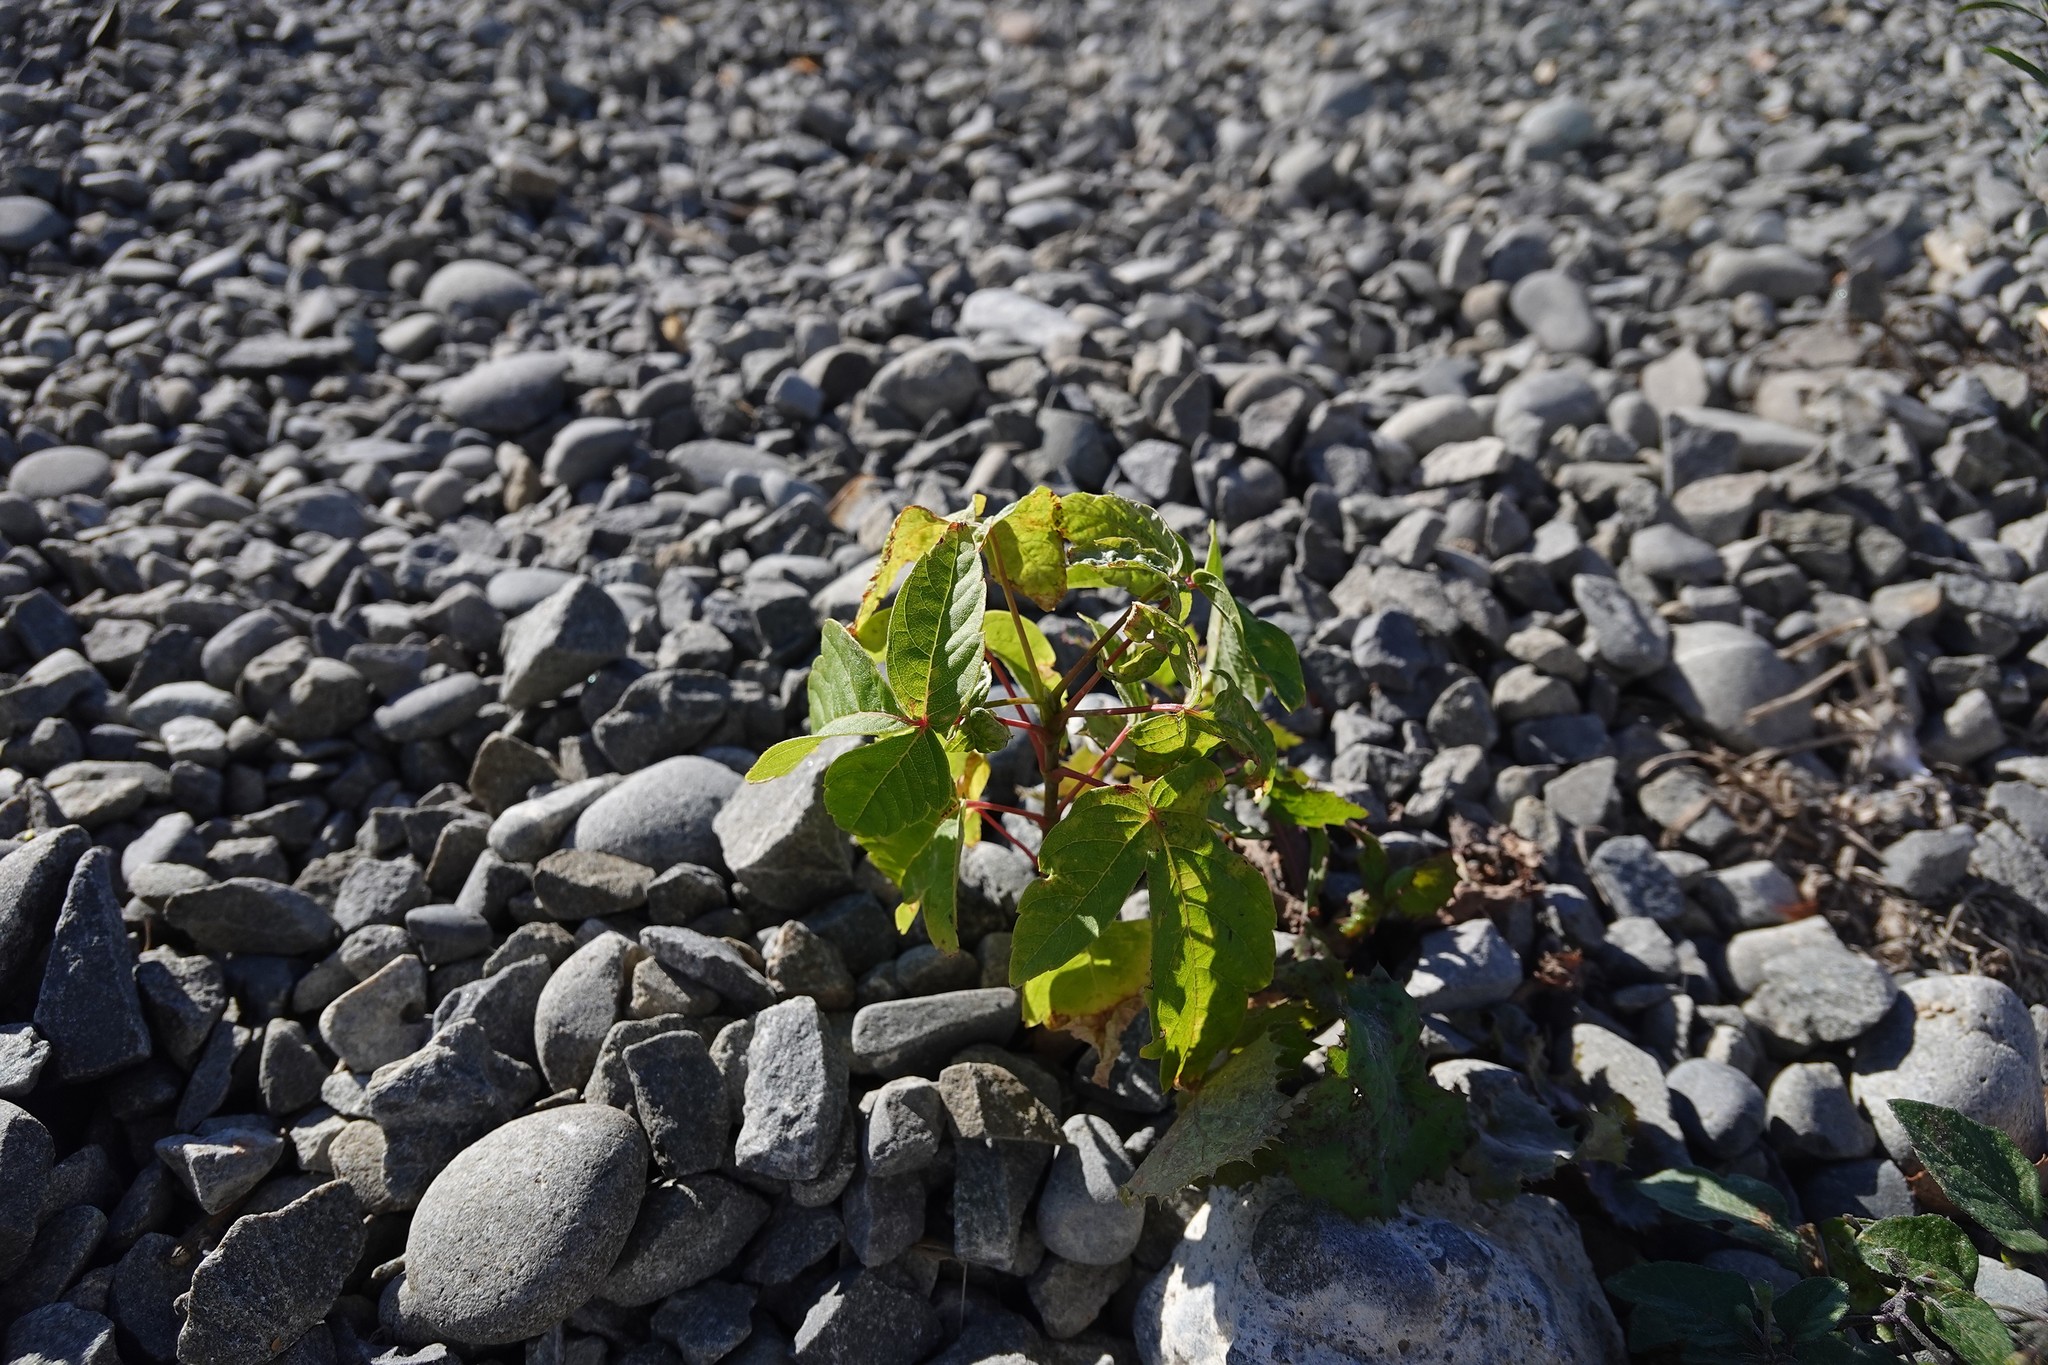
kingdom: Plantae
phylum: Tracheophyta
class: Magnoliopsida
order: Sapindales
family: Sapindaceae
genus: Acer
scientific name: Acer negundo
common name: Ashleaf maple
